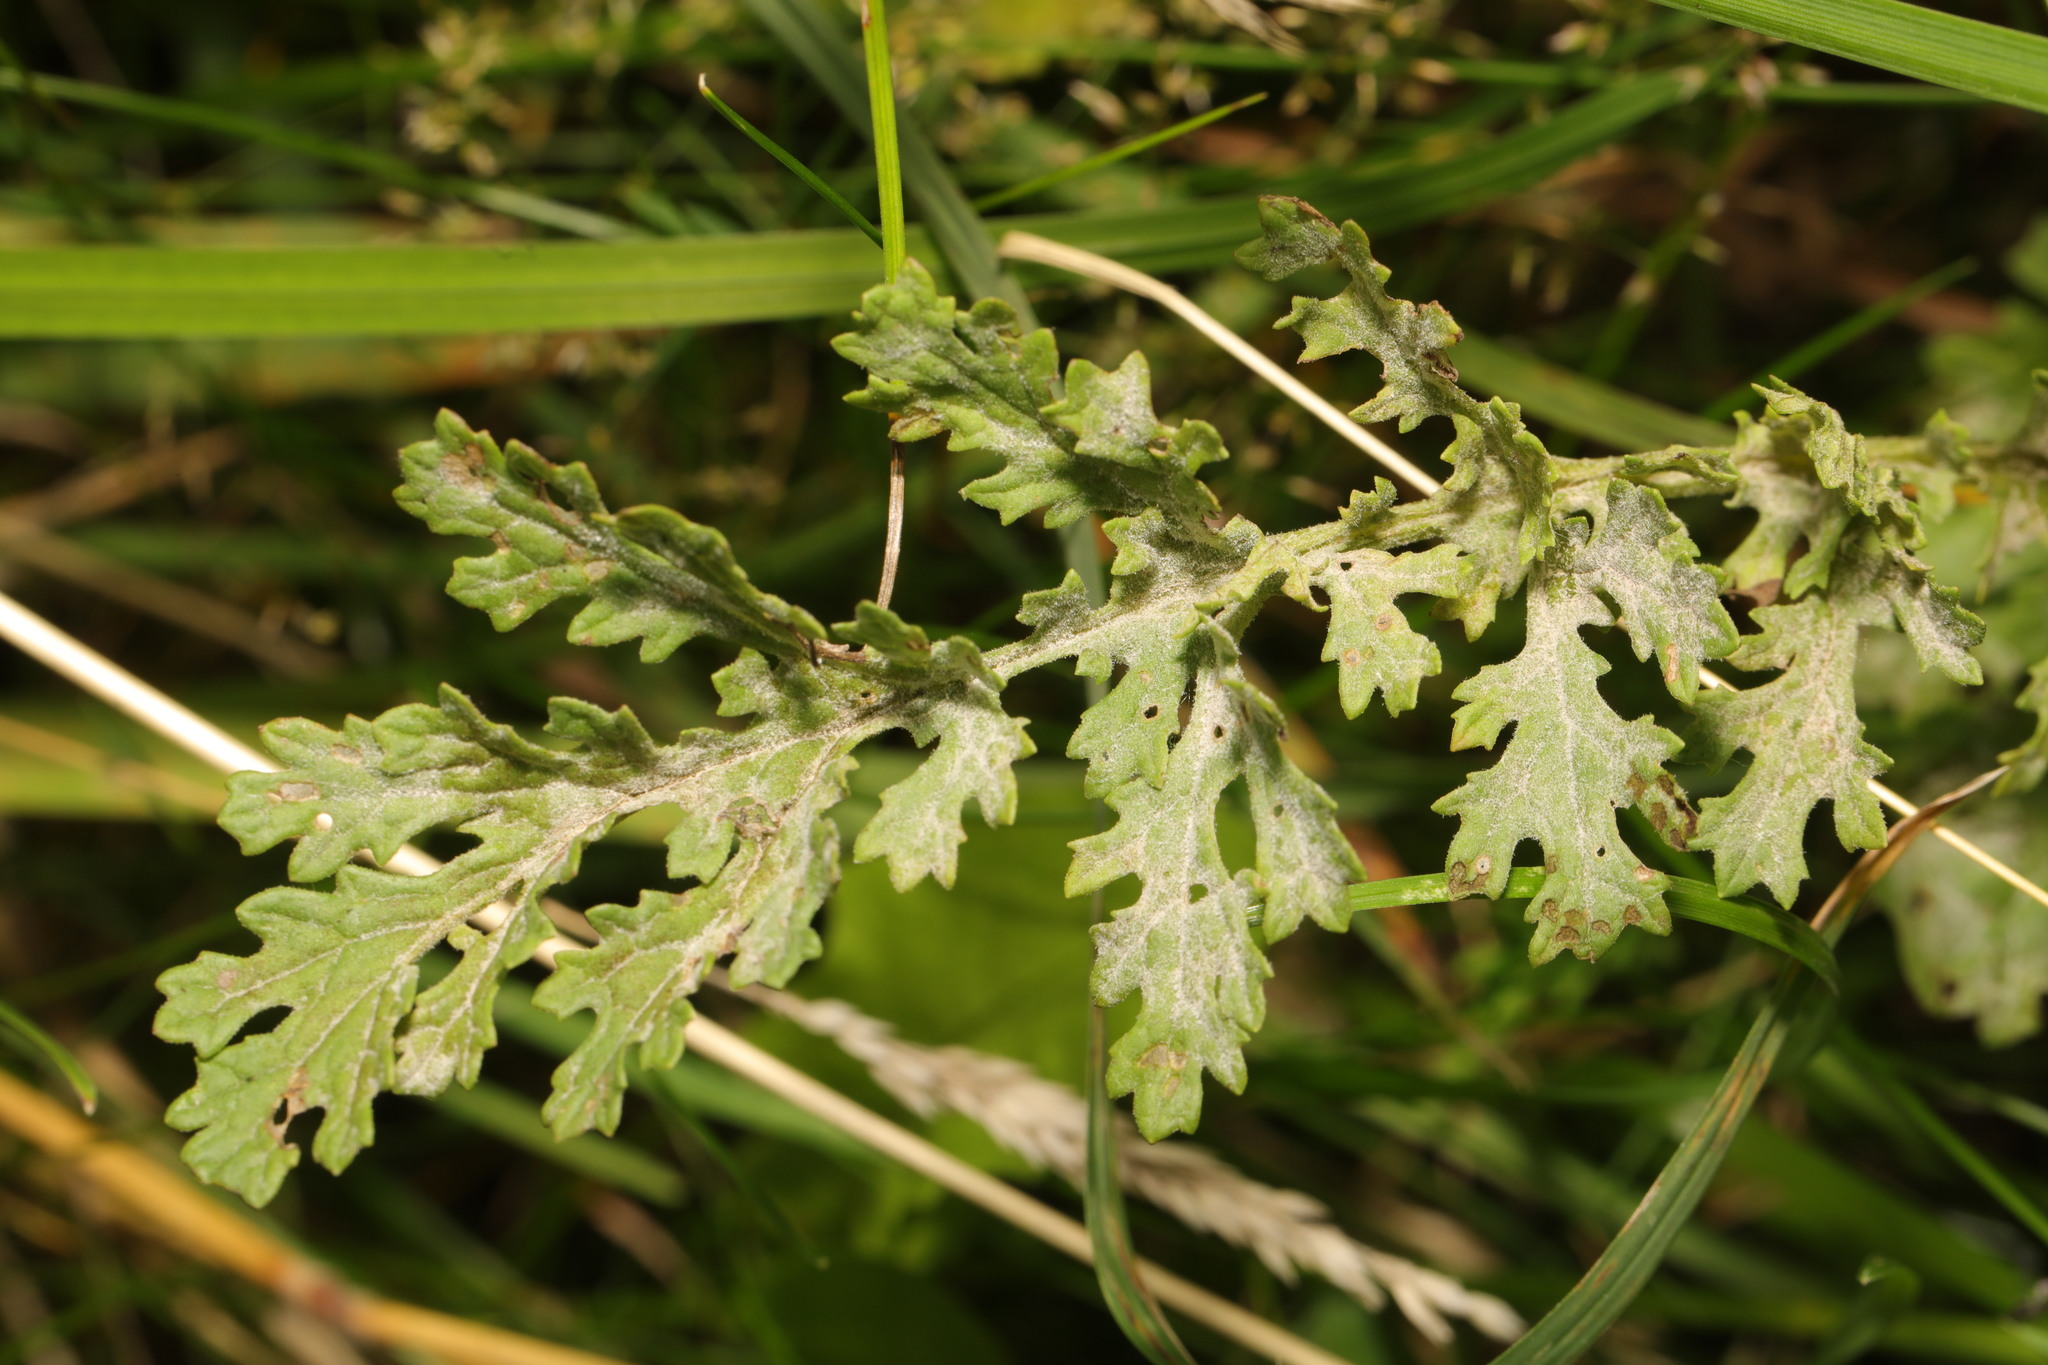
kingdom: Fungi
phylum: Ascomycota
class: Leotiomycetes
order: Helotiales
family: Erysiphaceae
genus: Golovinomyces
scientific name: Golovinomyces senecionis
